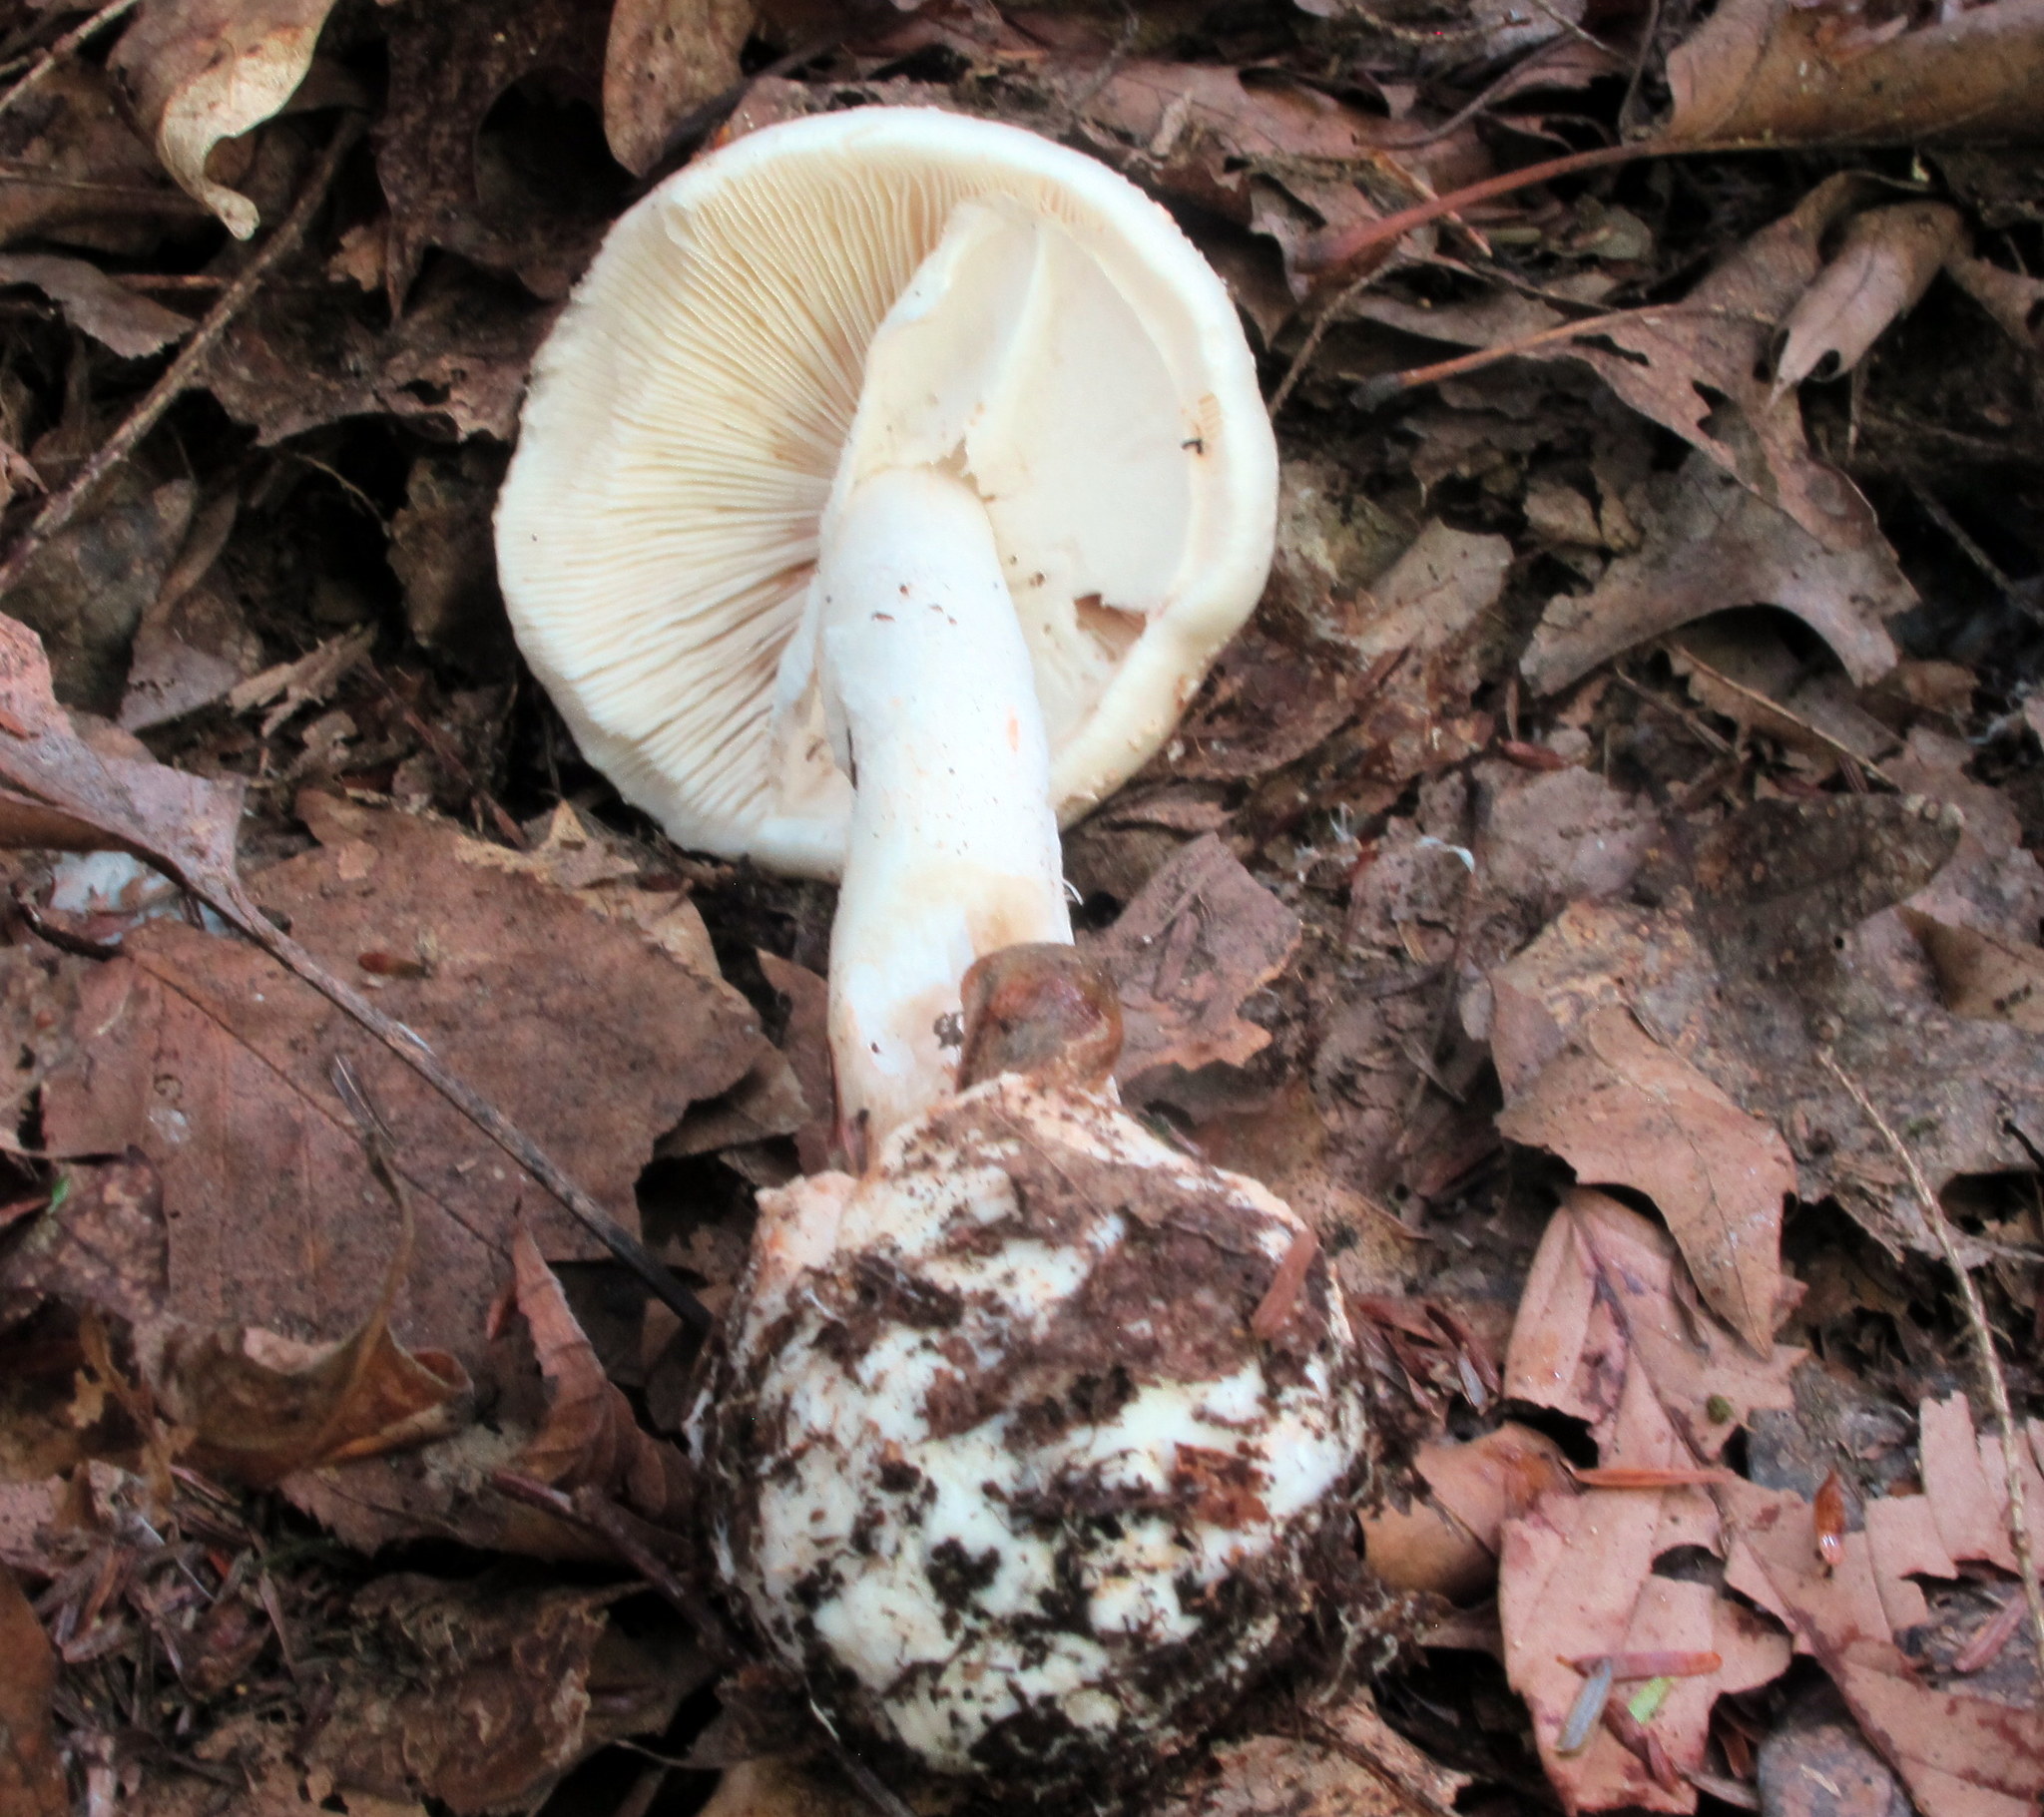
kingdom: Fungi
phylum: Basidiomycota
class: Agaricomycetes
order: Agaricales
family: Amanitaceae
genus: Amanita
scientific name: Amanita brunnescens
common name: Brown american star-footed amanita
